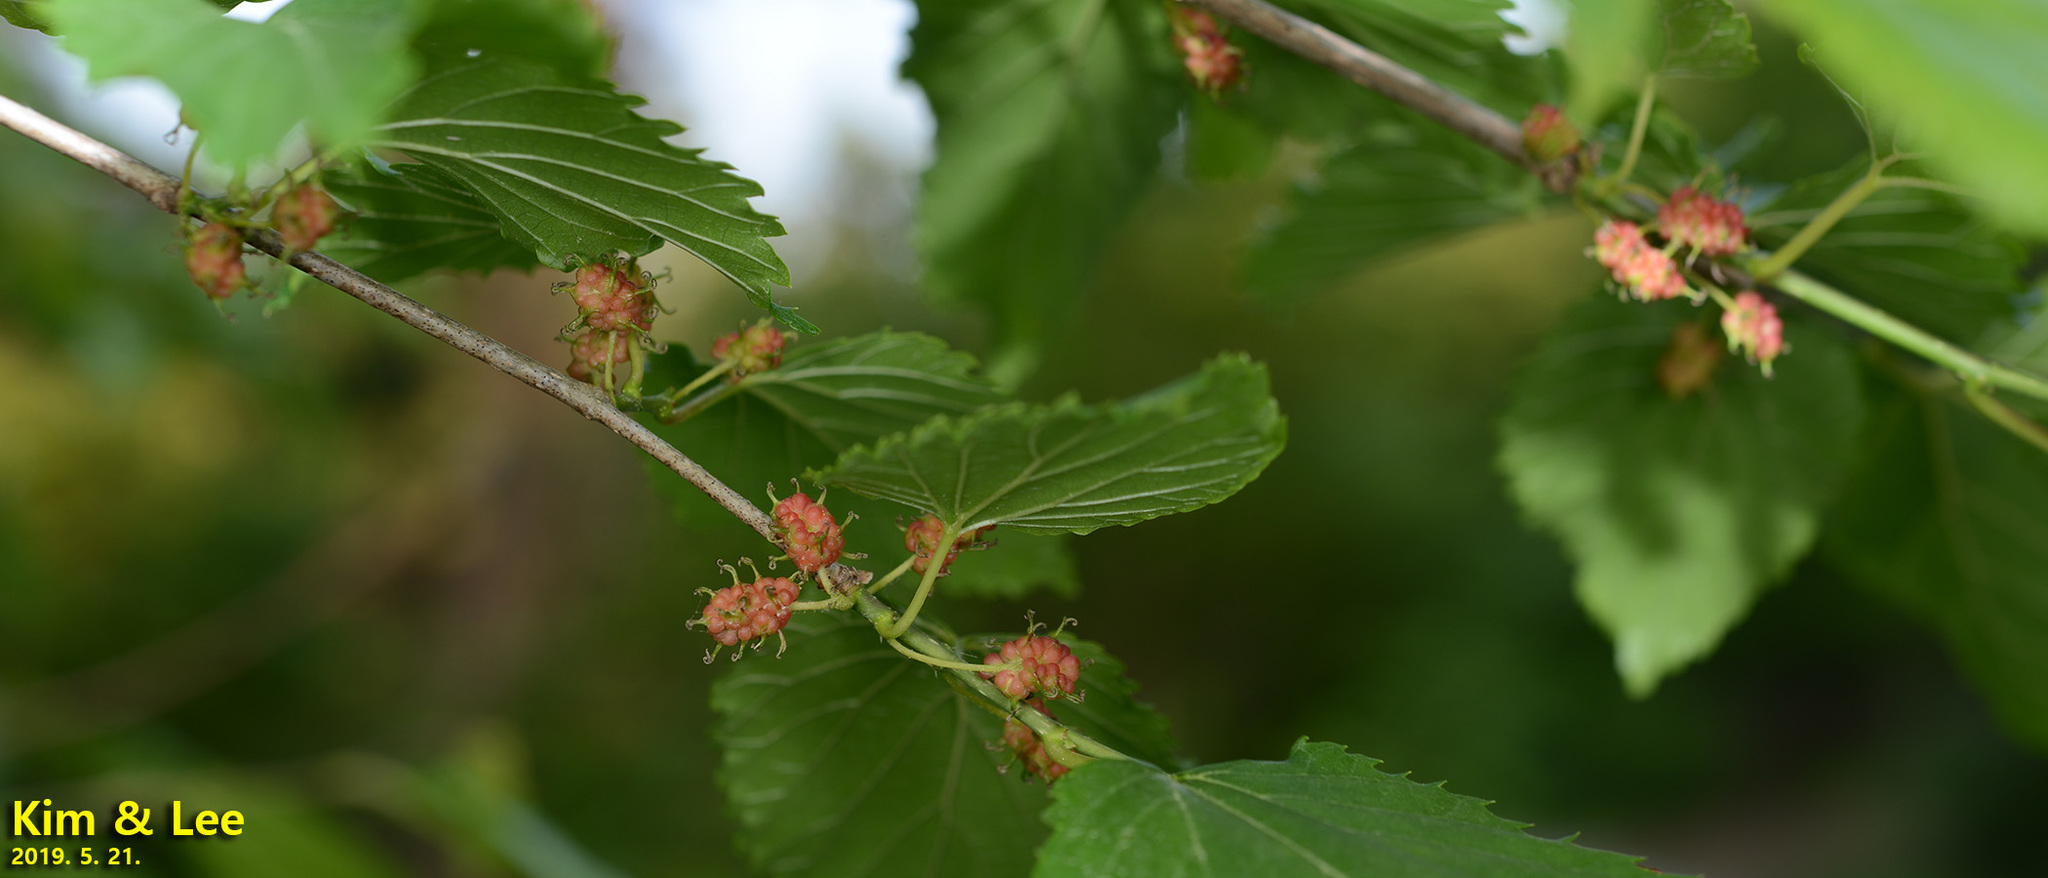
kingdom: Plantae
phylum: Tracheophyta
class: Magnoliopsida
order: Rosales
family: Moraceae
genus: Morus
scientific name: Morus indica
